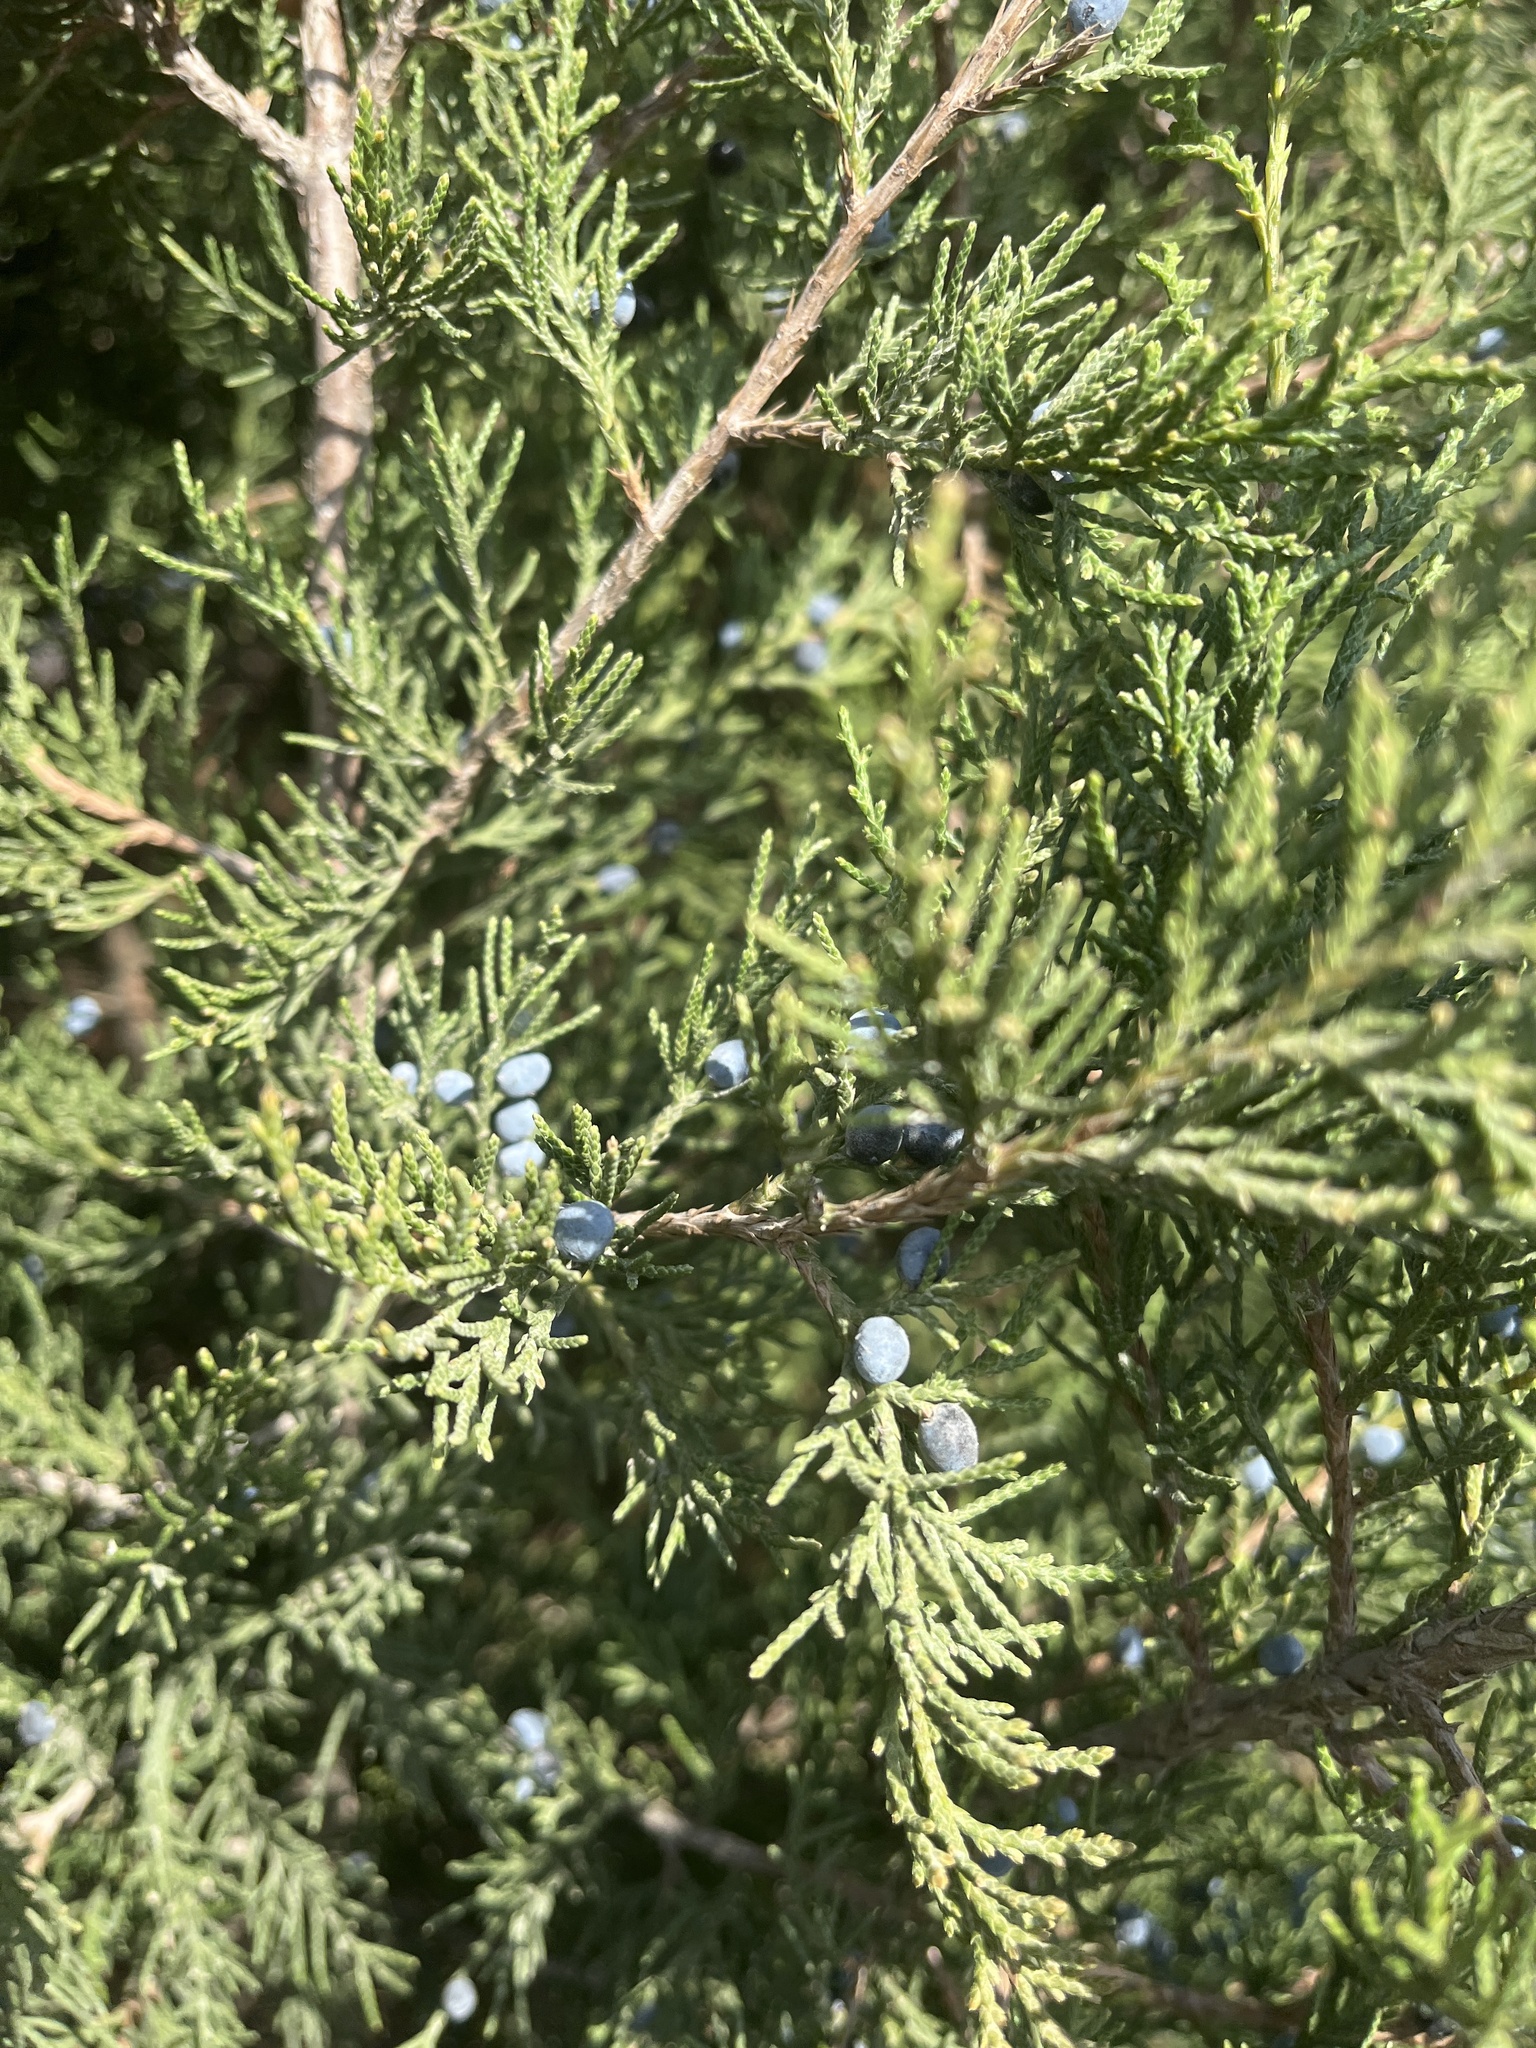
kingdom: Plantae
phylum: Tracheophyta
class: Pinopsida
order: Pinales
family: Cupressaceae
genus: Juniperus
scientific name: Juniperus virginiana
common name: Red juniper
